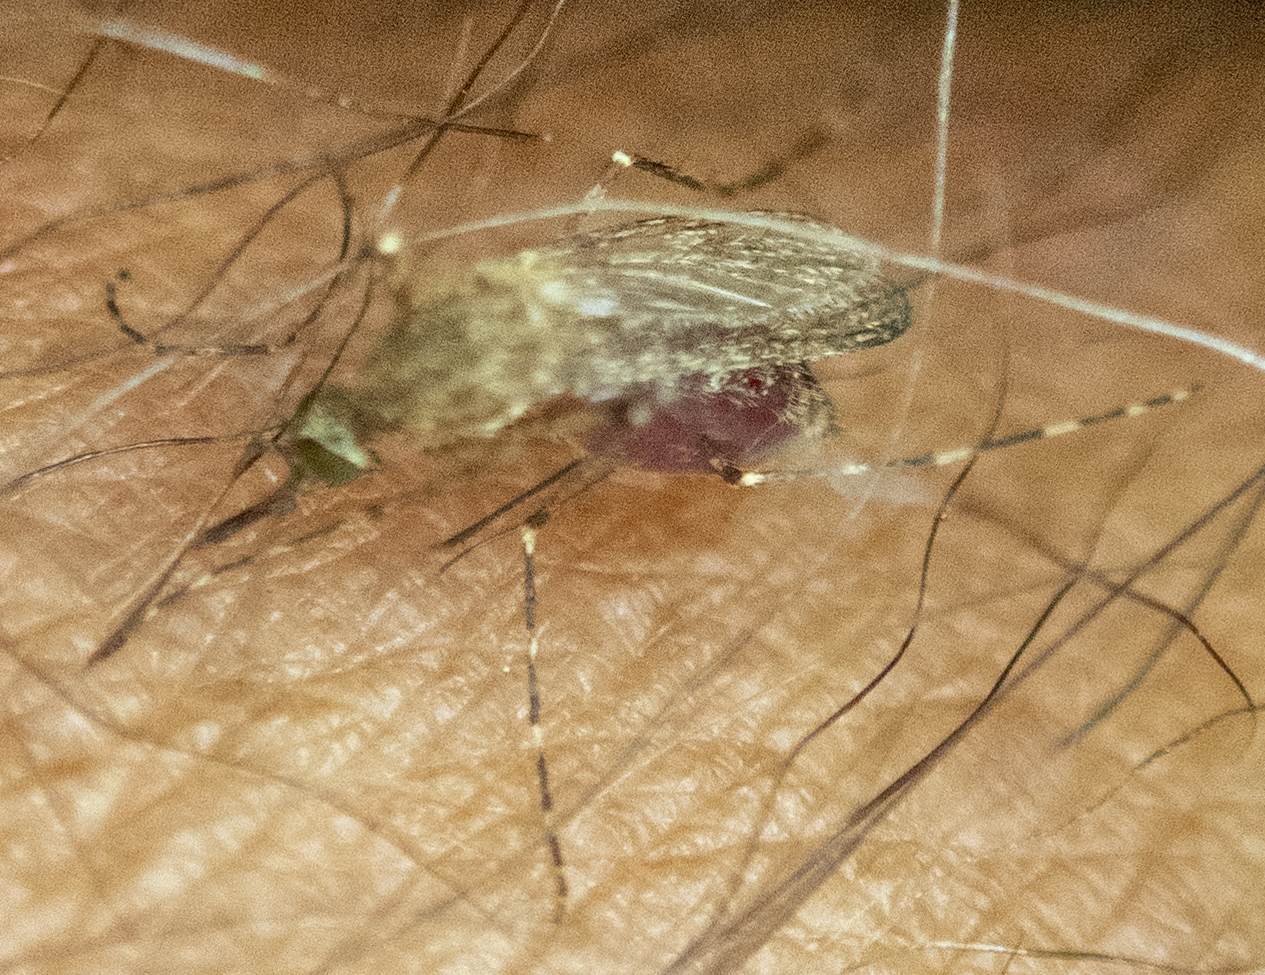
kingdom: Animalia
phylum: Arthropoda
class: Insecta
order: Diptera
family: Culicidae
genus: Coquillettidia
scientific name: Coquillettidia perturbans
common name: Cattail mosquito
